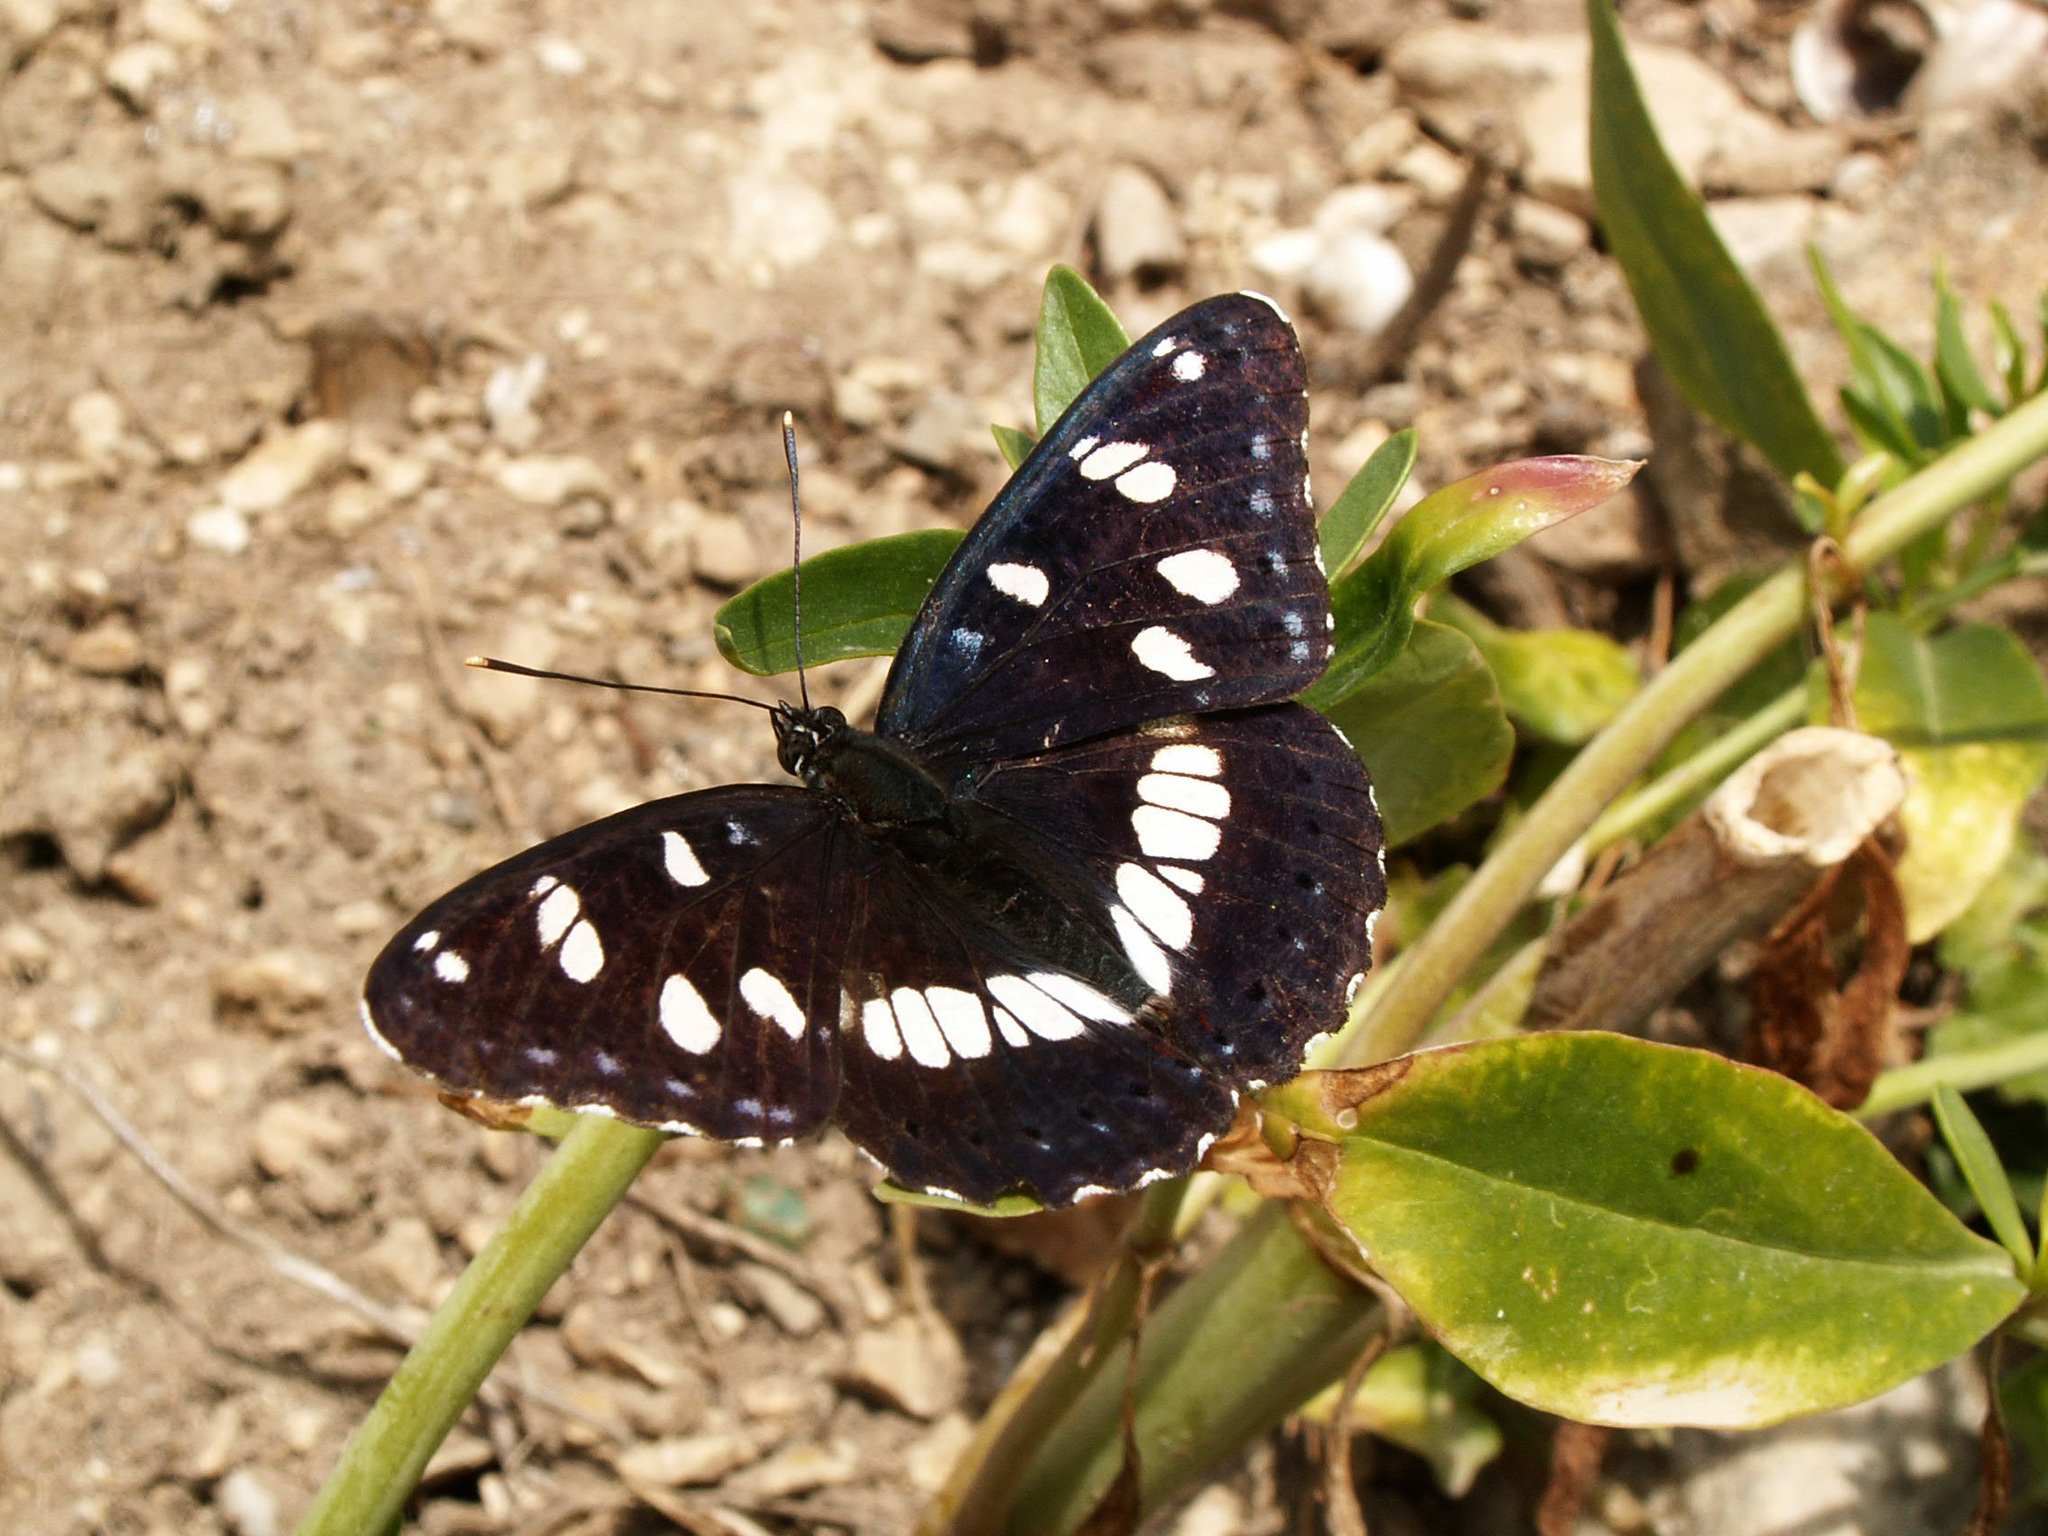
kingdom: Animalia
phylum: Arthropoda
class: Insecta
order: Lepidoptera
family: Nymphalidae
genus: Limenitis
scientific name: Limenitis reducta
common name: Southern white admiral
